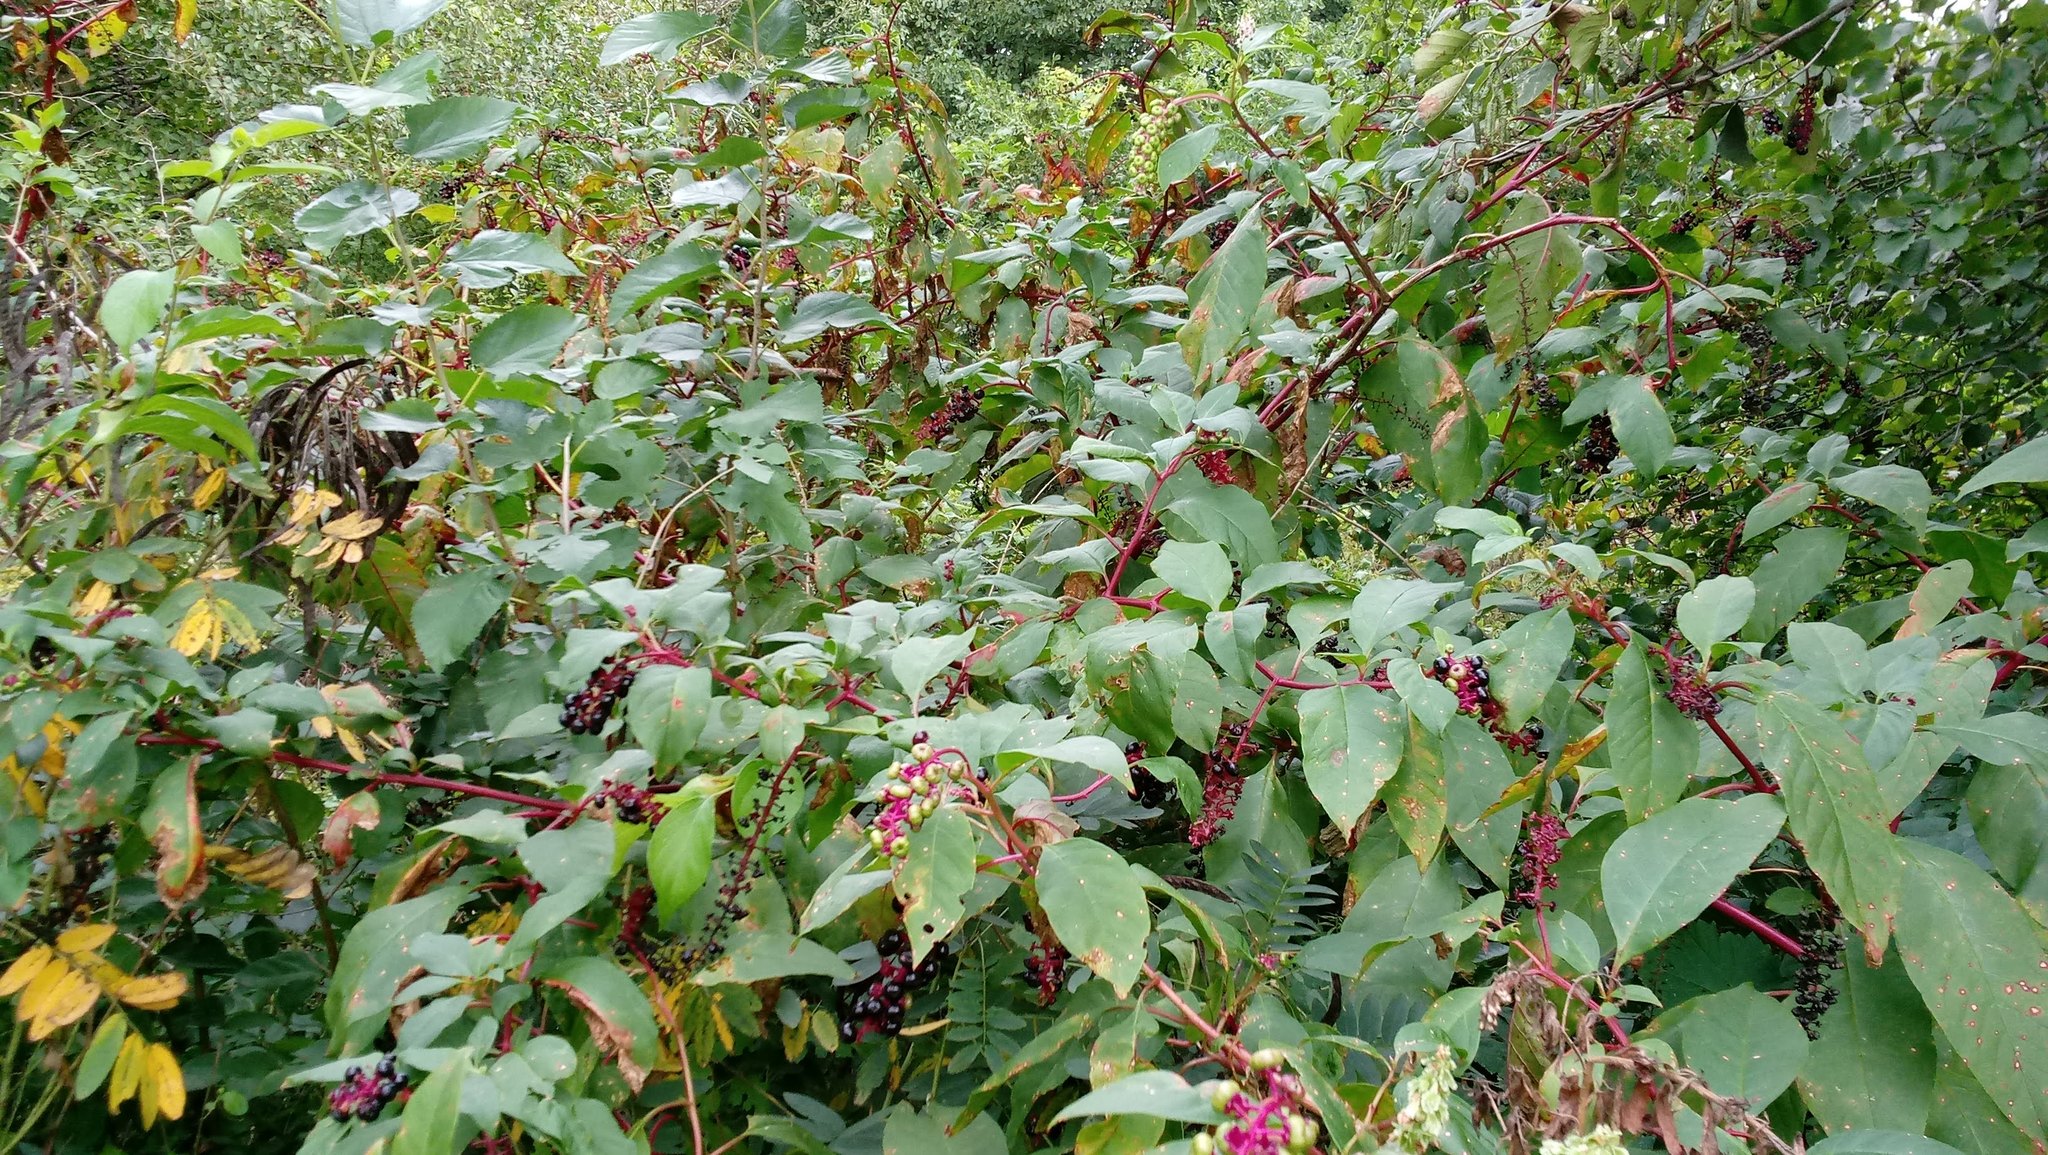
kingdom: Plantae
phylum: Tracheophyta
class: Magnoliopsida
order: Caryophyllales
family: Phytolaccaceae
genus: Phytolacca
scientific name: Phytolacca americana
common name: American pokeweed
